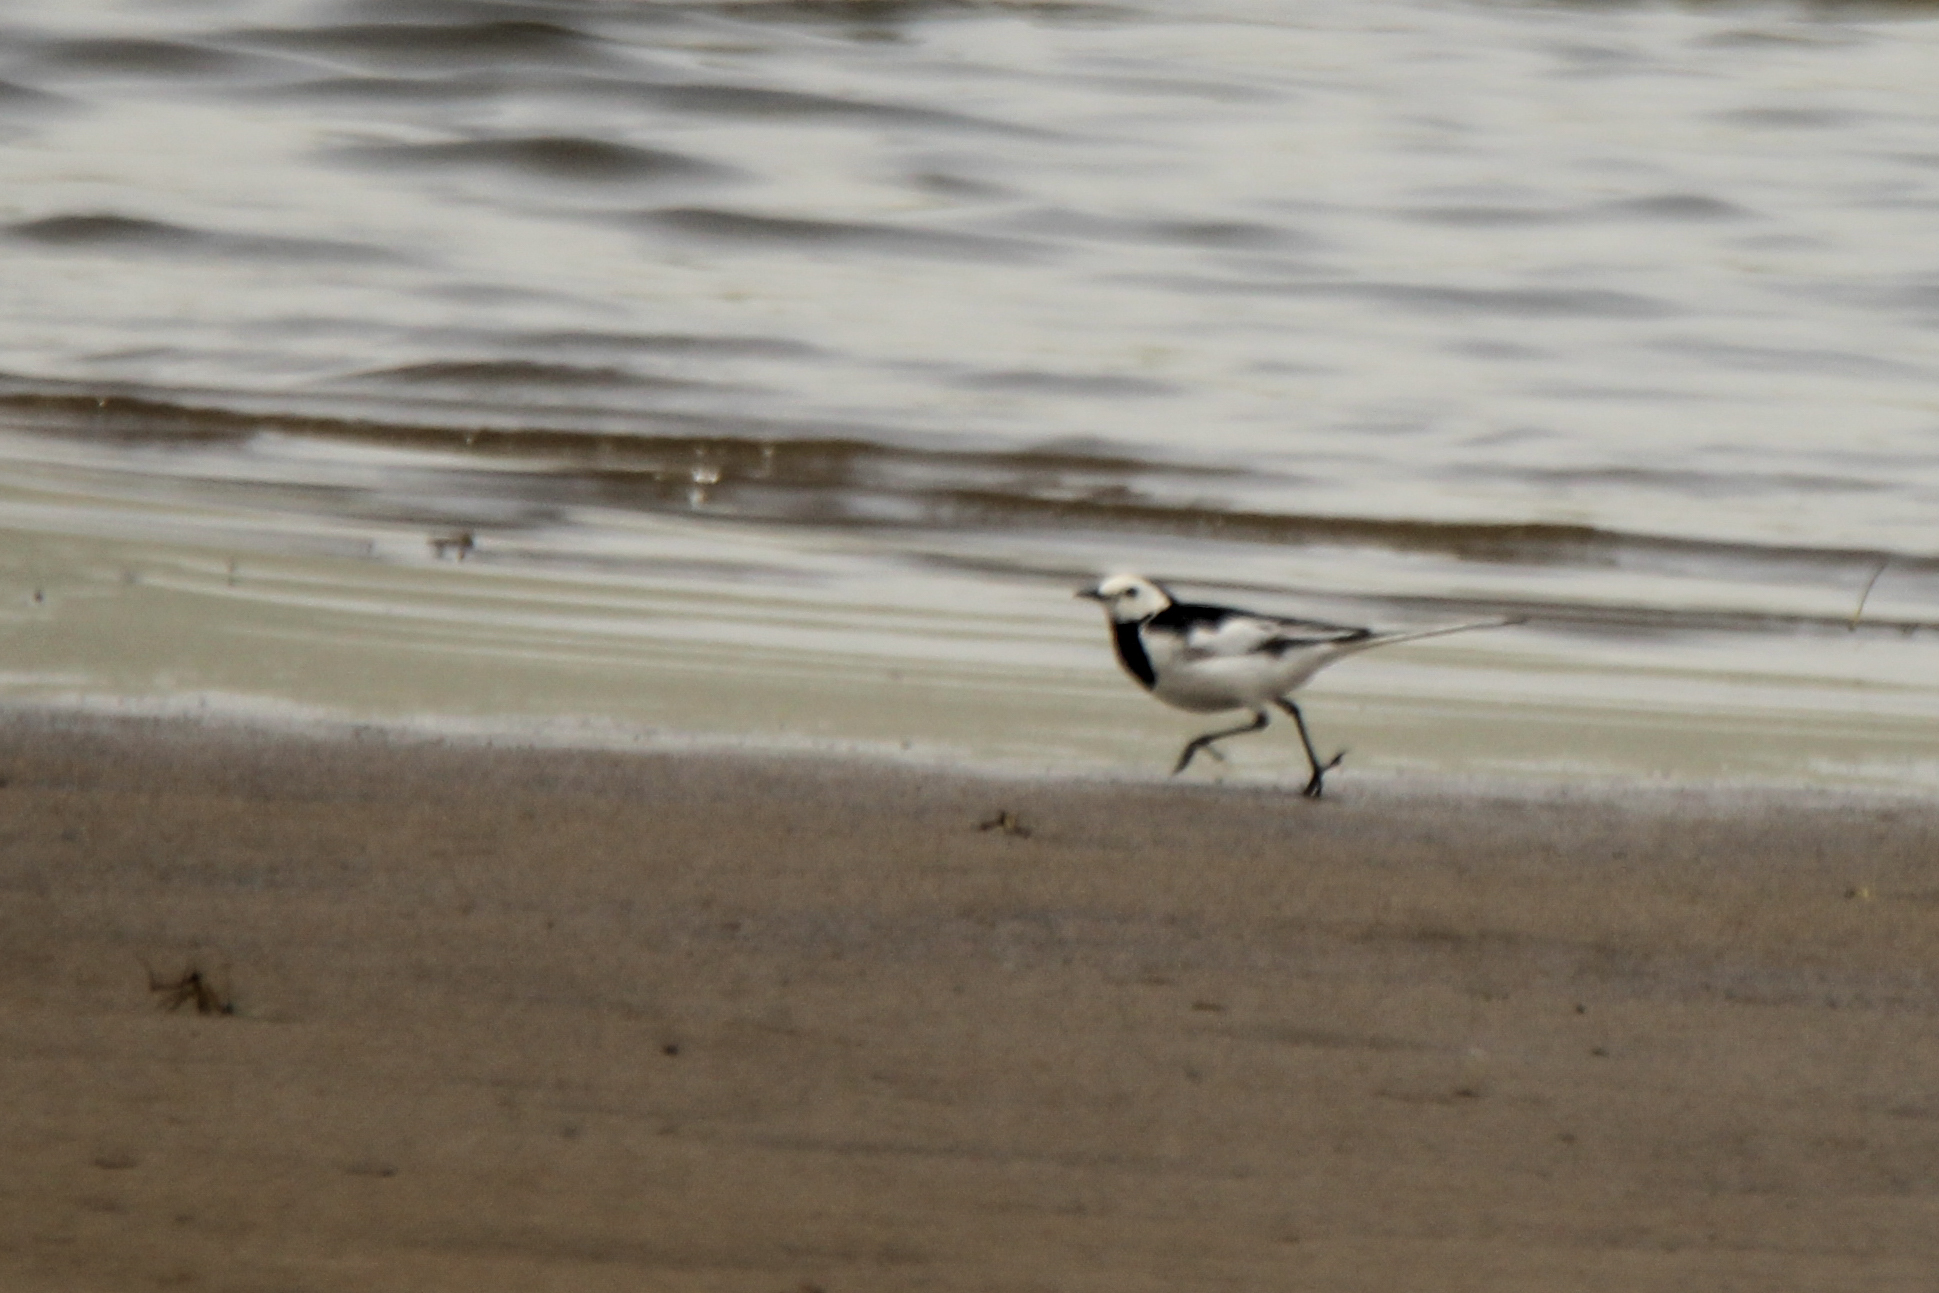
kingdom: Animalia
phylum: Chordata
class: Aves
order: Passeriformes
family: Motacillidae
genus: Motacilla
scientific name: Motacilla alba
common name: White wagtail
